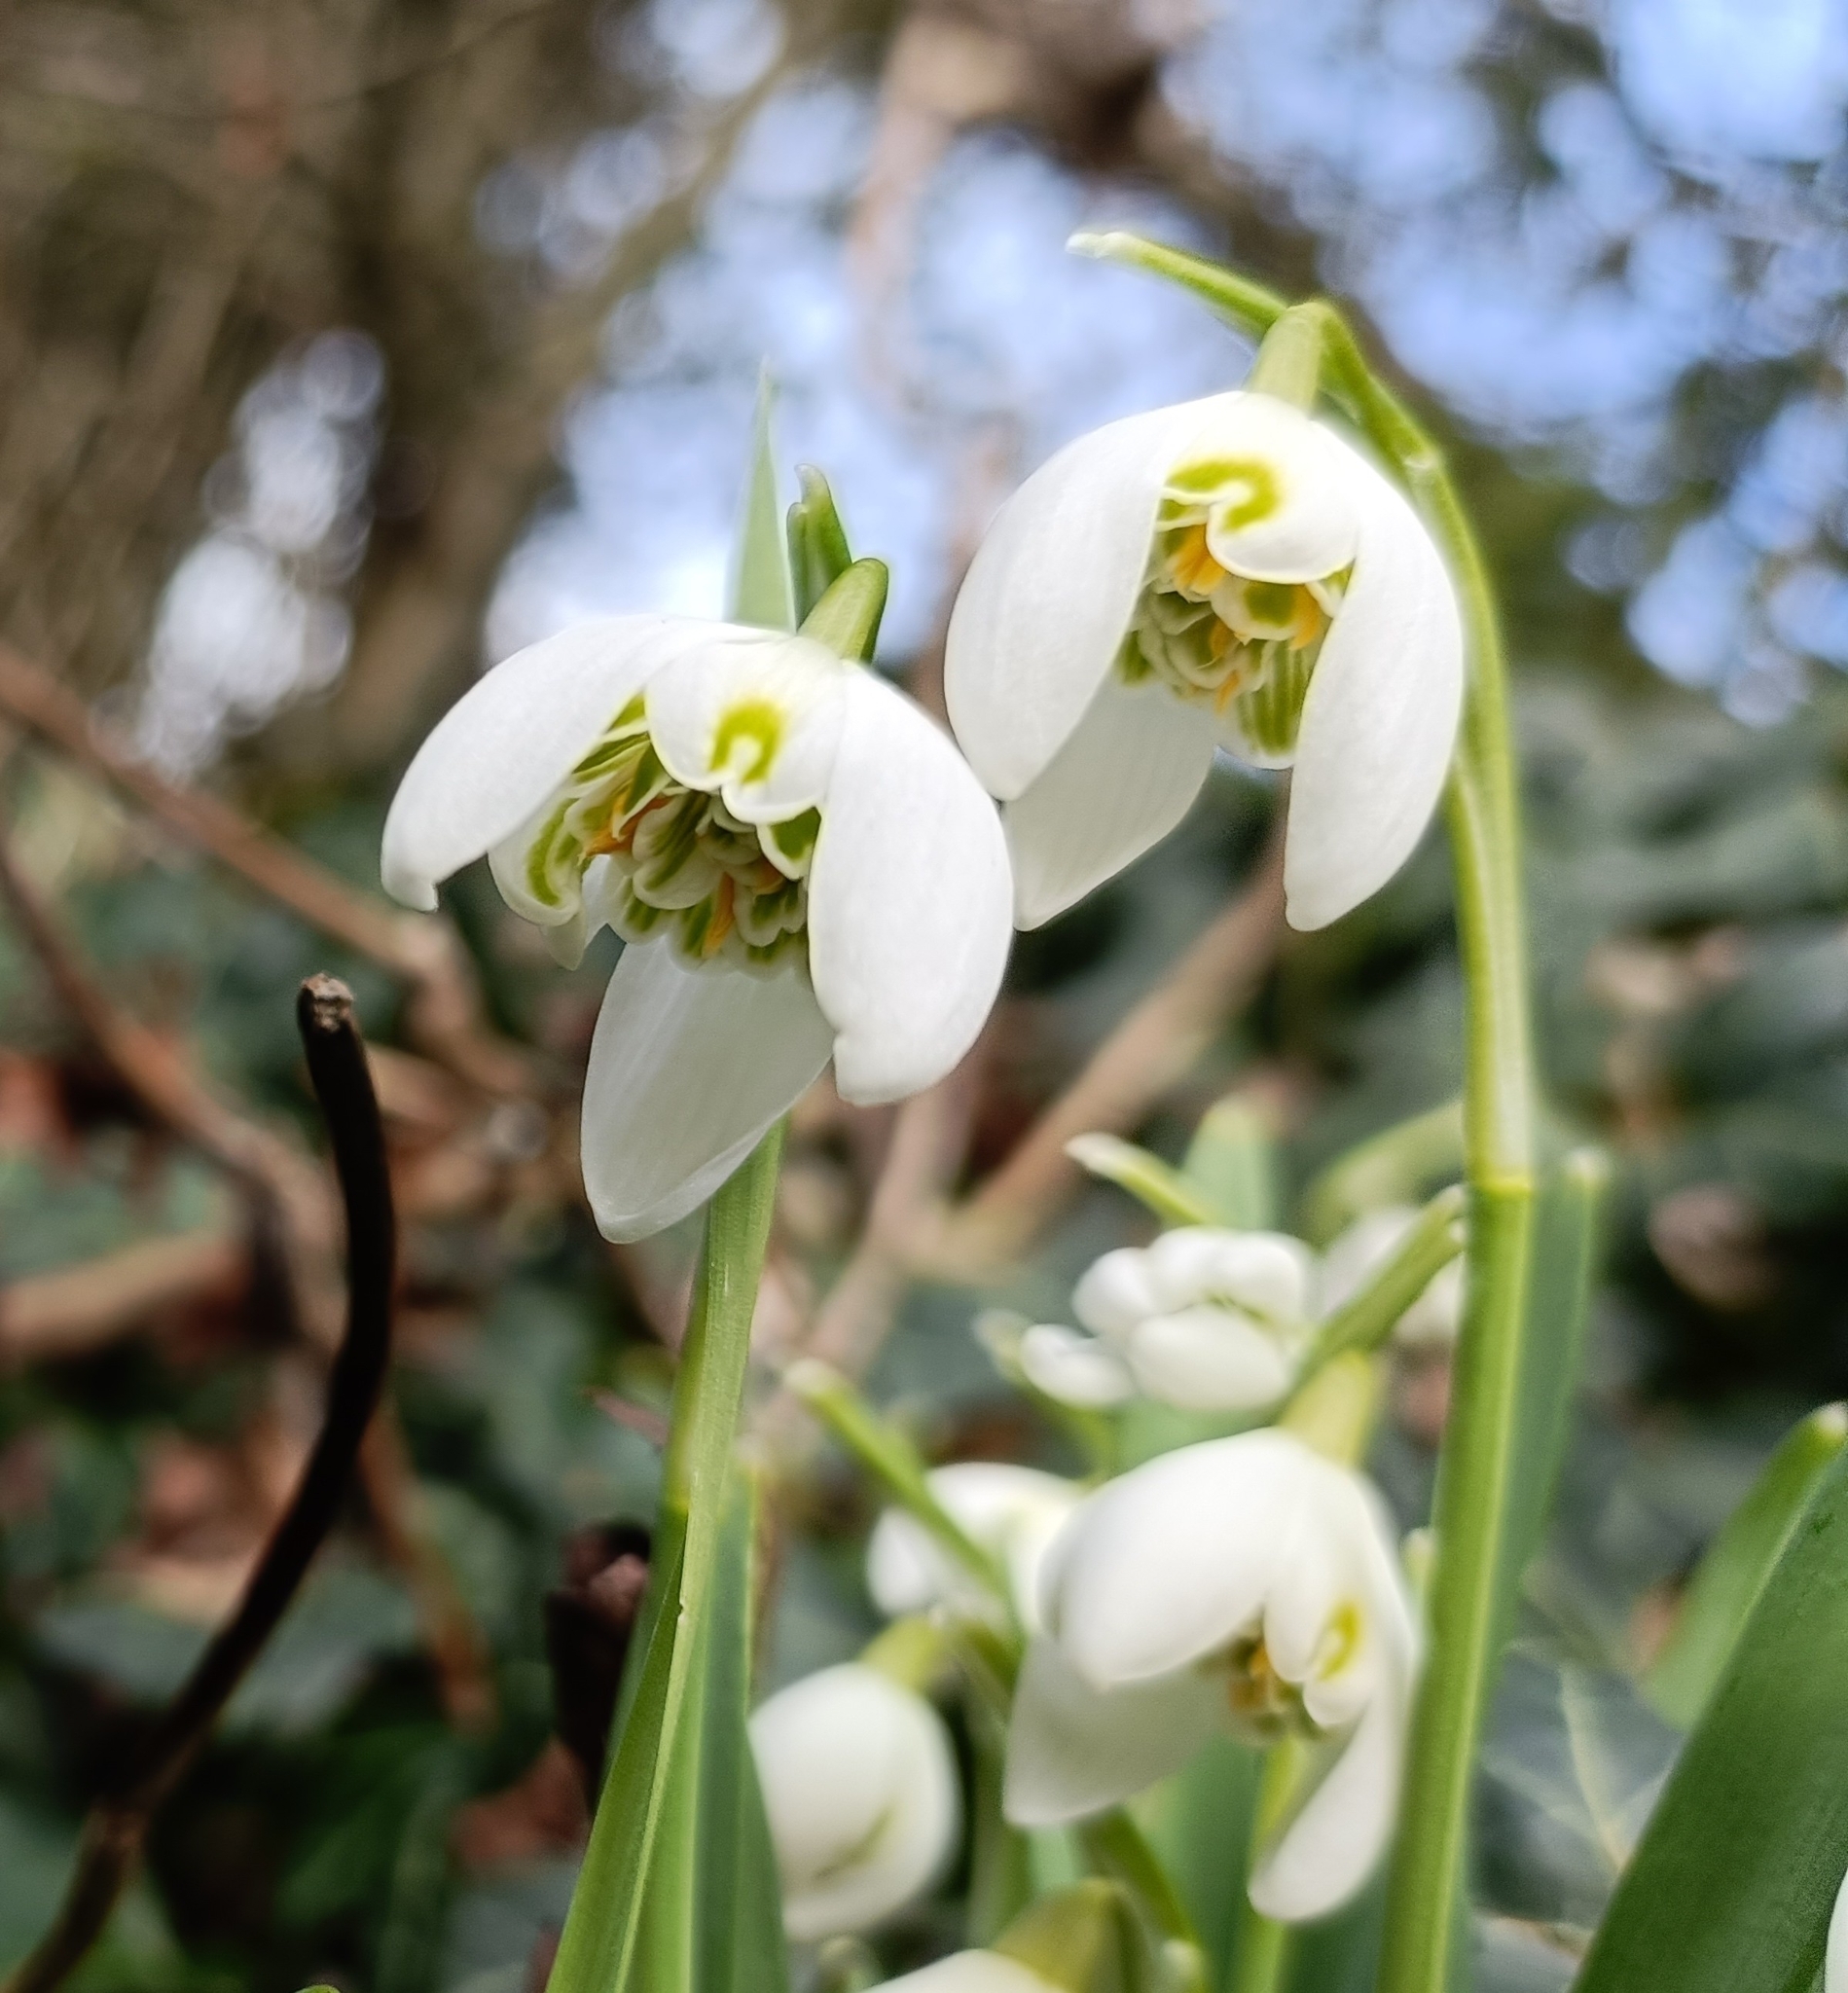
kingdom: Plantae
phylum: Tracheophyta
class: Liliopsida
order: Asparagales
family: Amaryllidaceae
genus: Galanthus
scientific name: Galanthus nivalis
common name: Snowdrop
